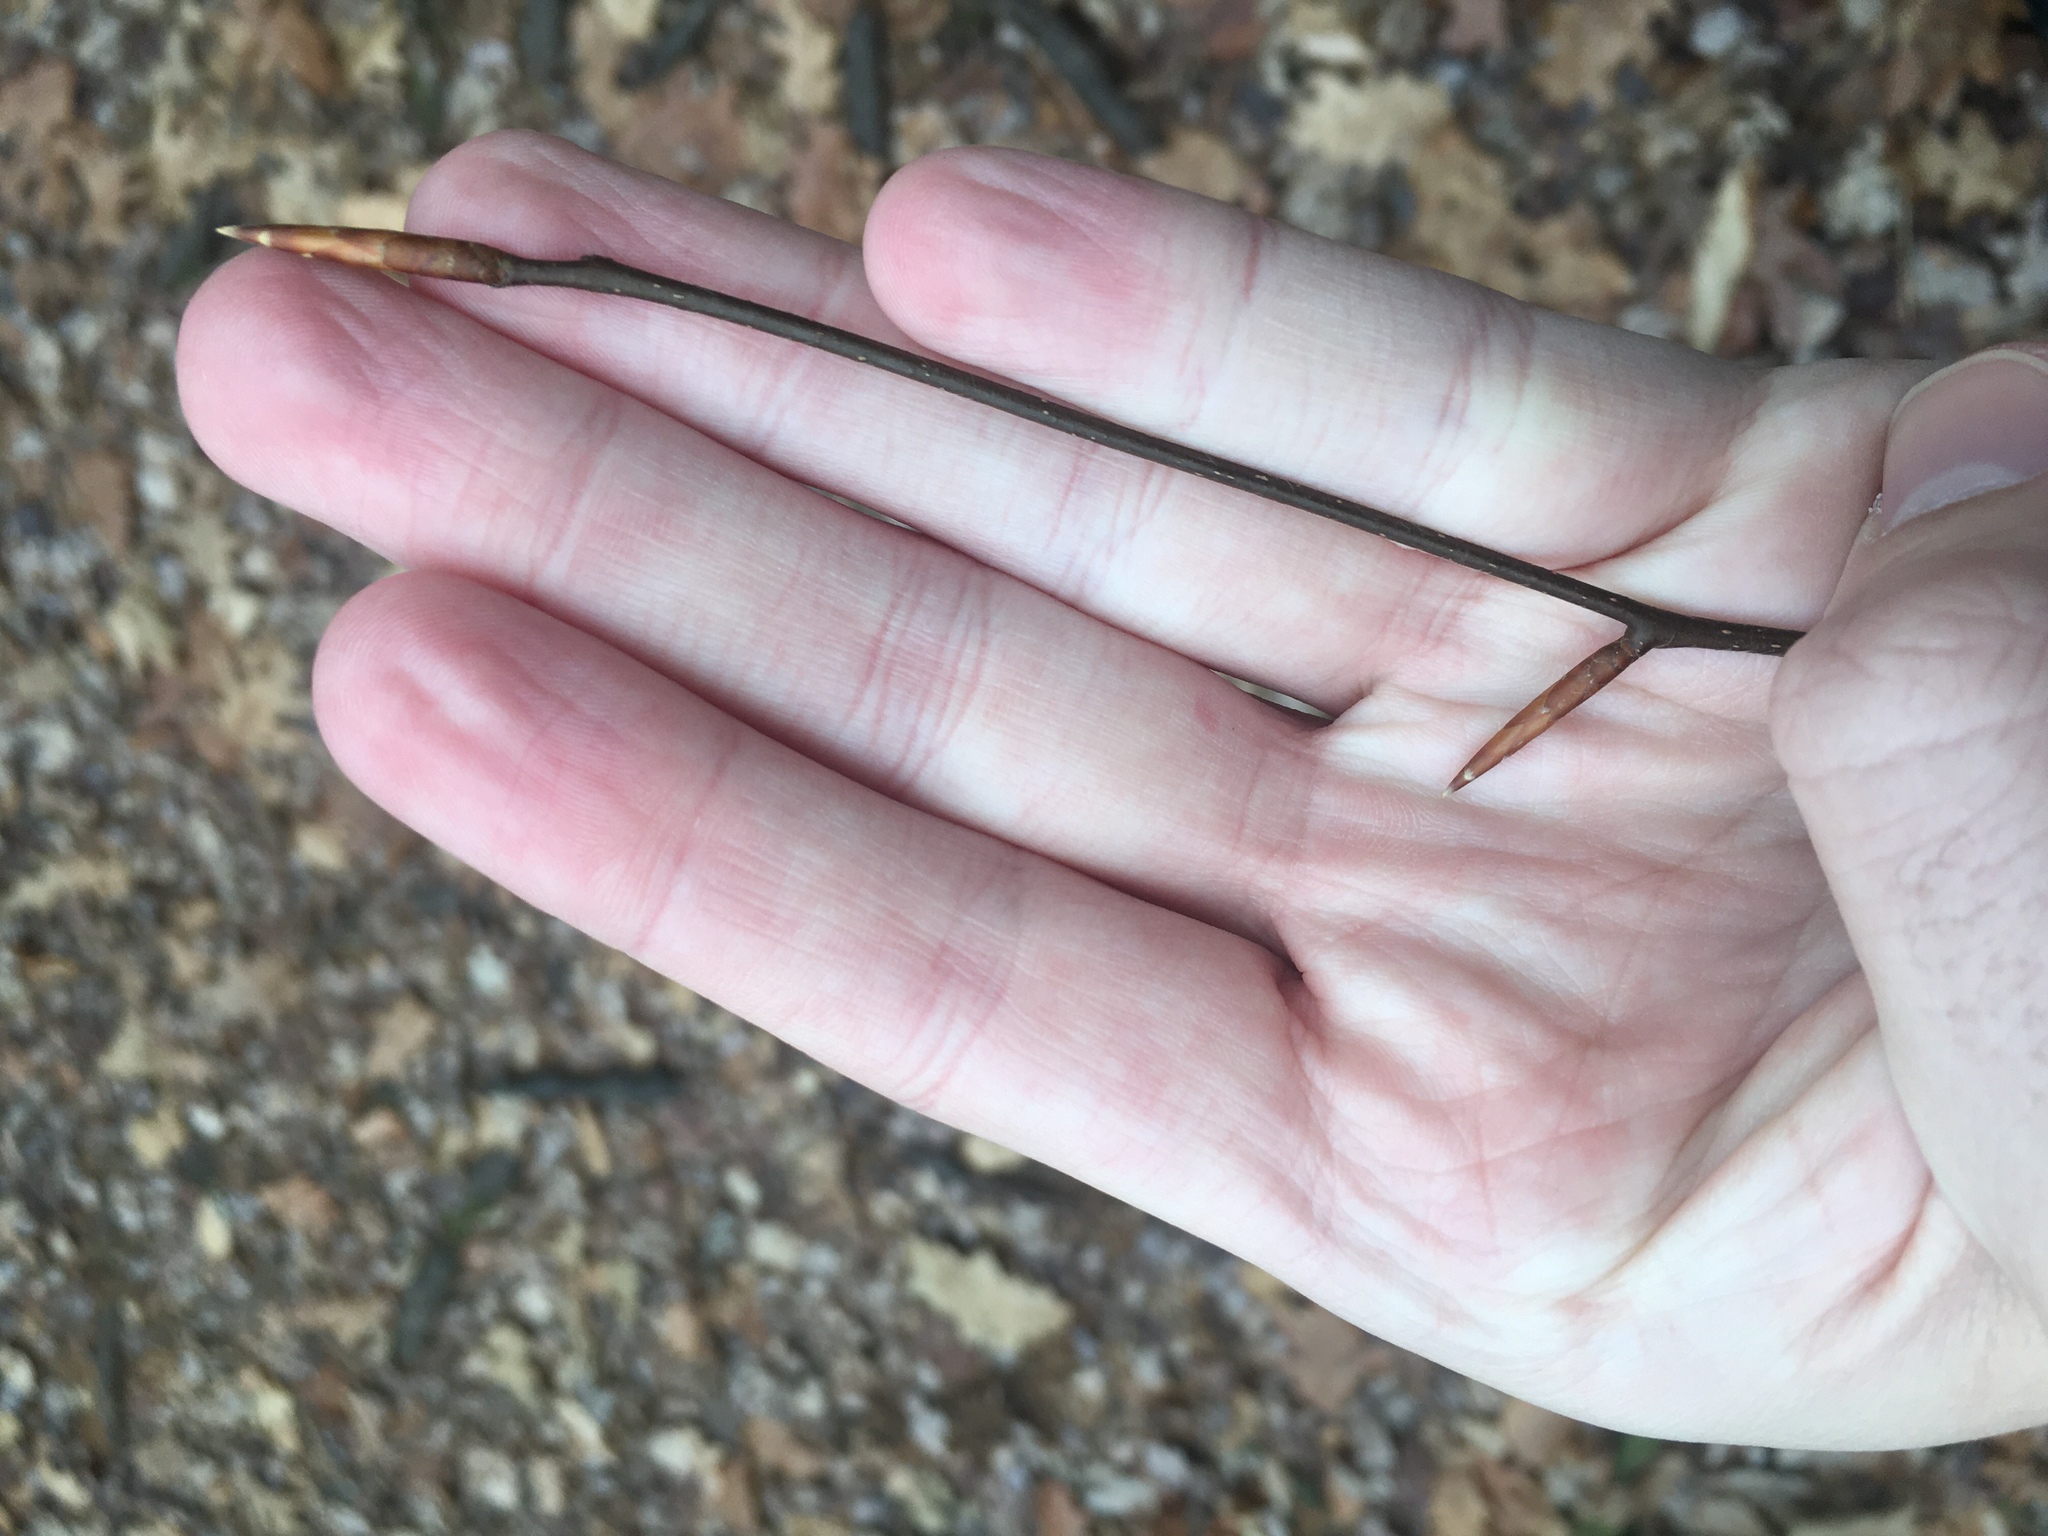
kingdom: Plantae
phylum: Tracheophyta
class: Magnoliopsida
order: Fagales
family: Fagaceae
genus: Fagus
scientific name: Fagus grandifolia
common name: American beech
